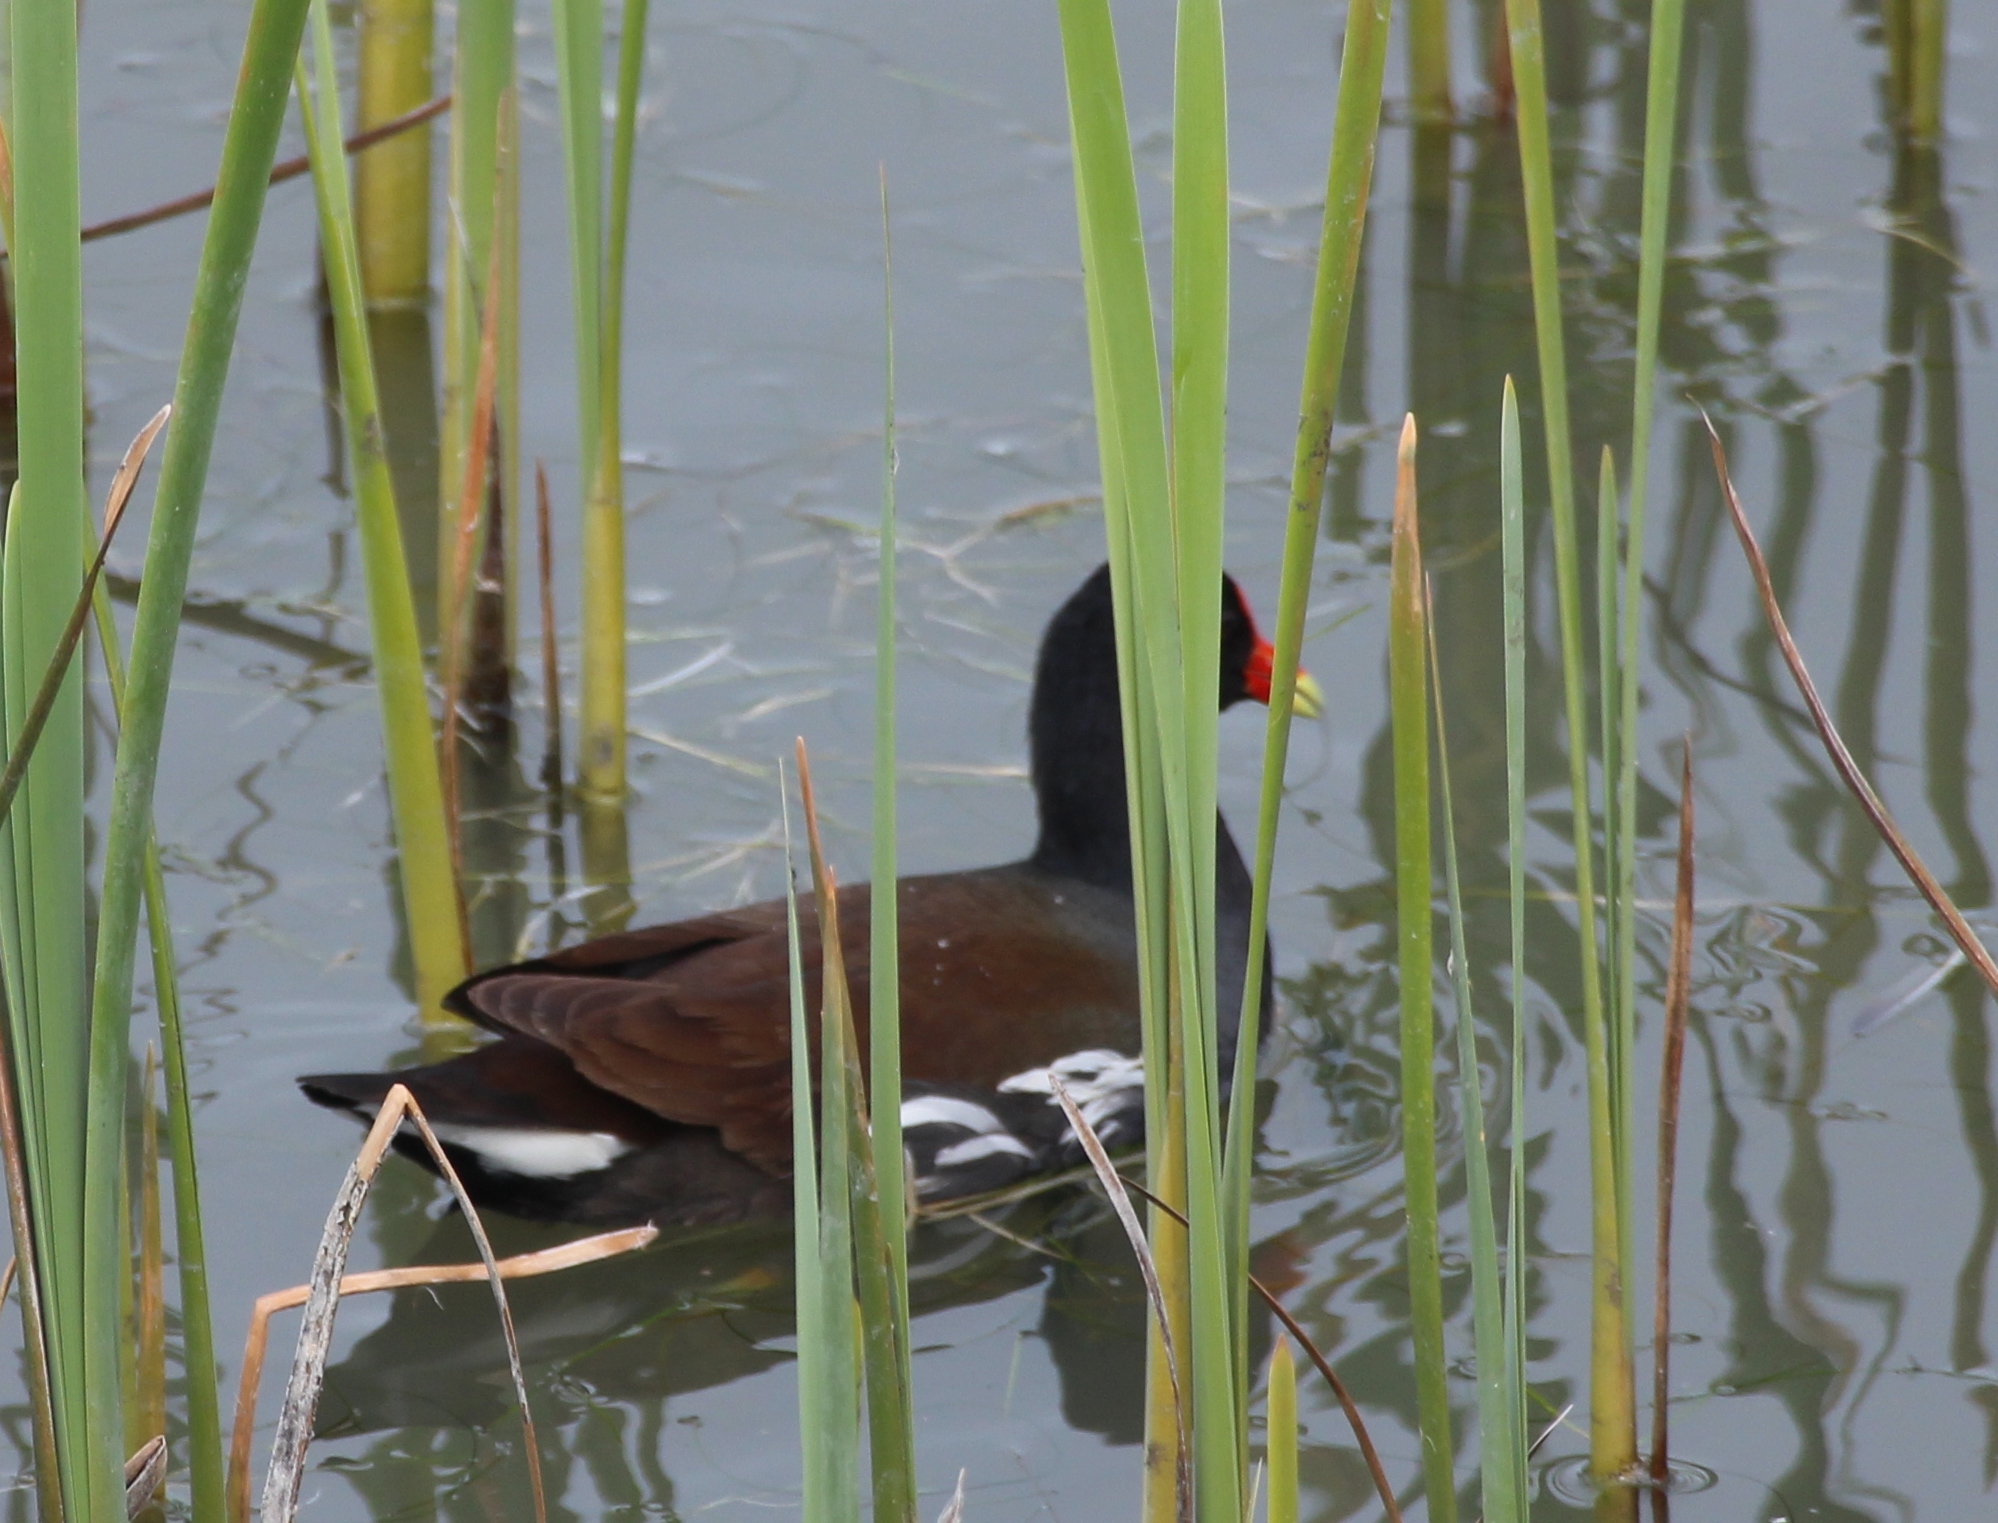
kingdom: Animalia
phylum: Chordata
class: Aves
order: Gruiformes
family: Rallidae
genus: Gallinula
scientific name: Gallinula chloropus
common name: Common moorhen
